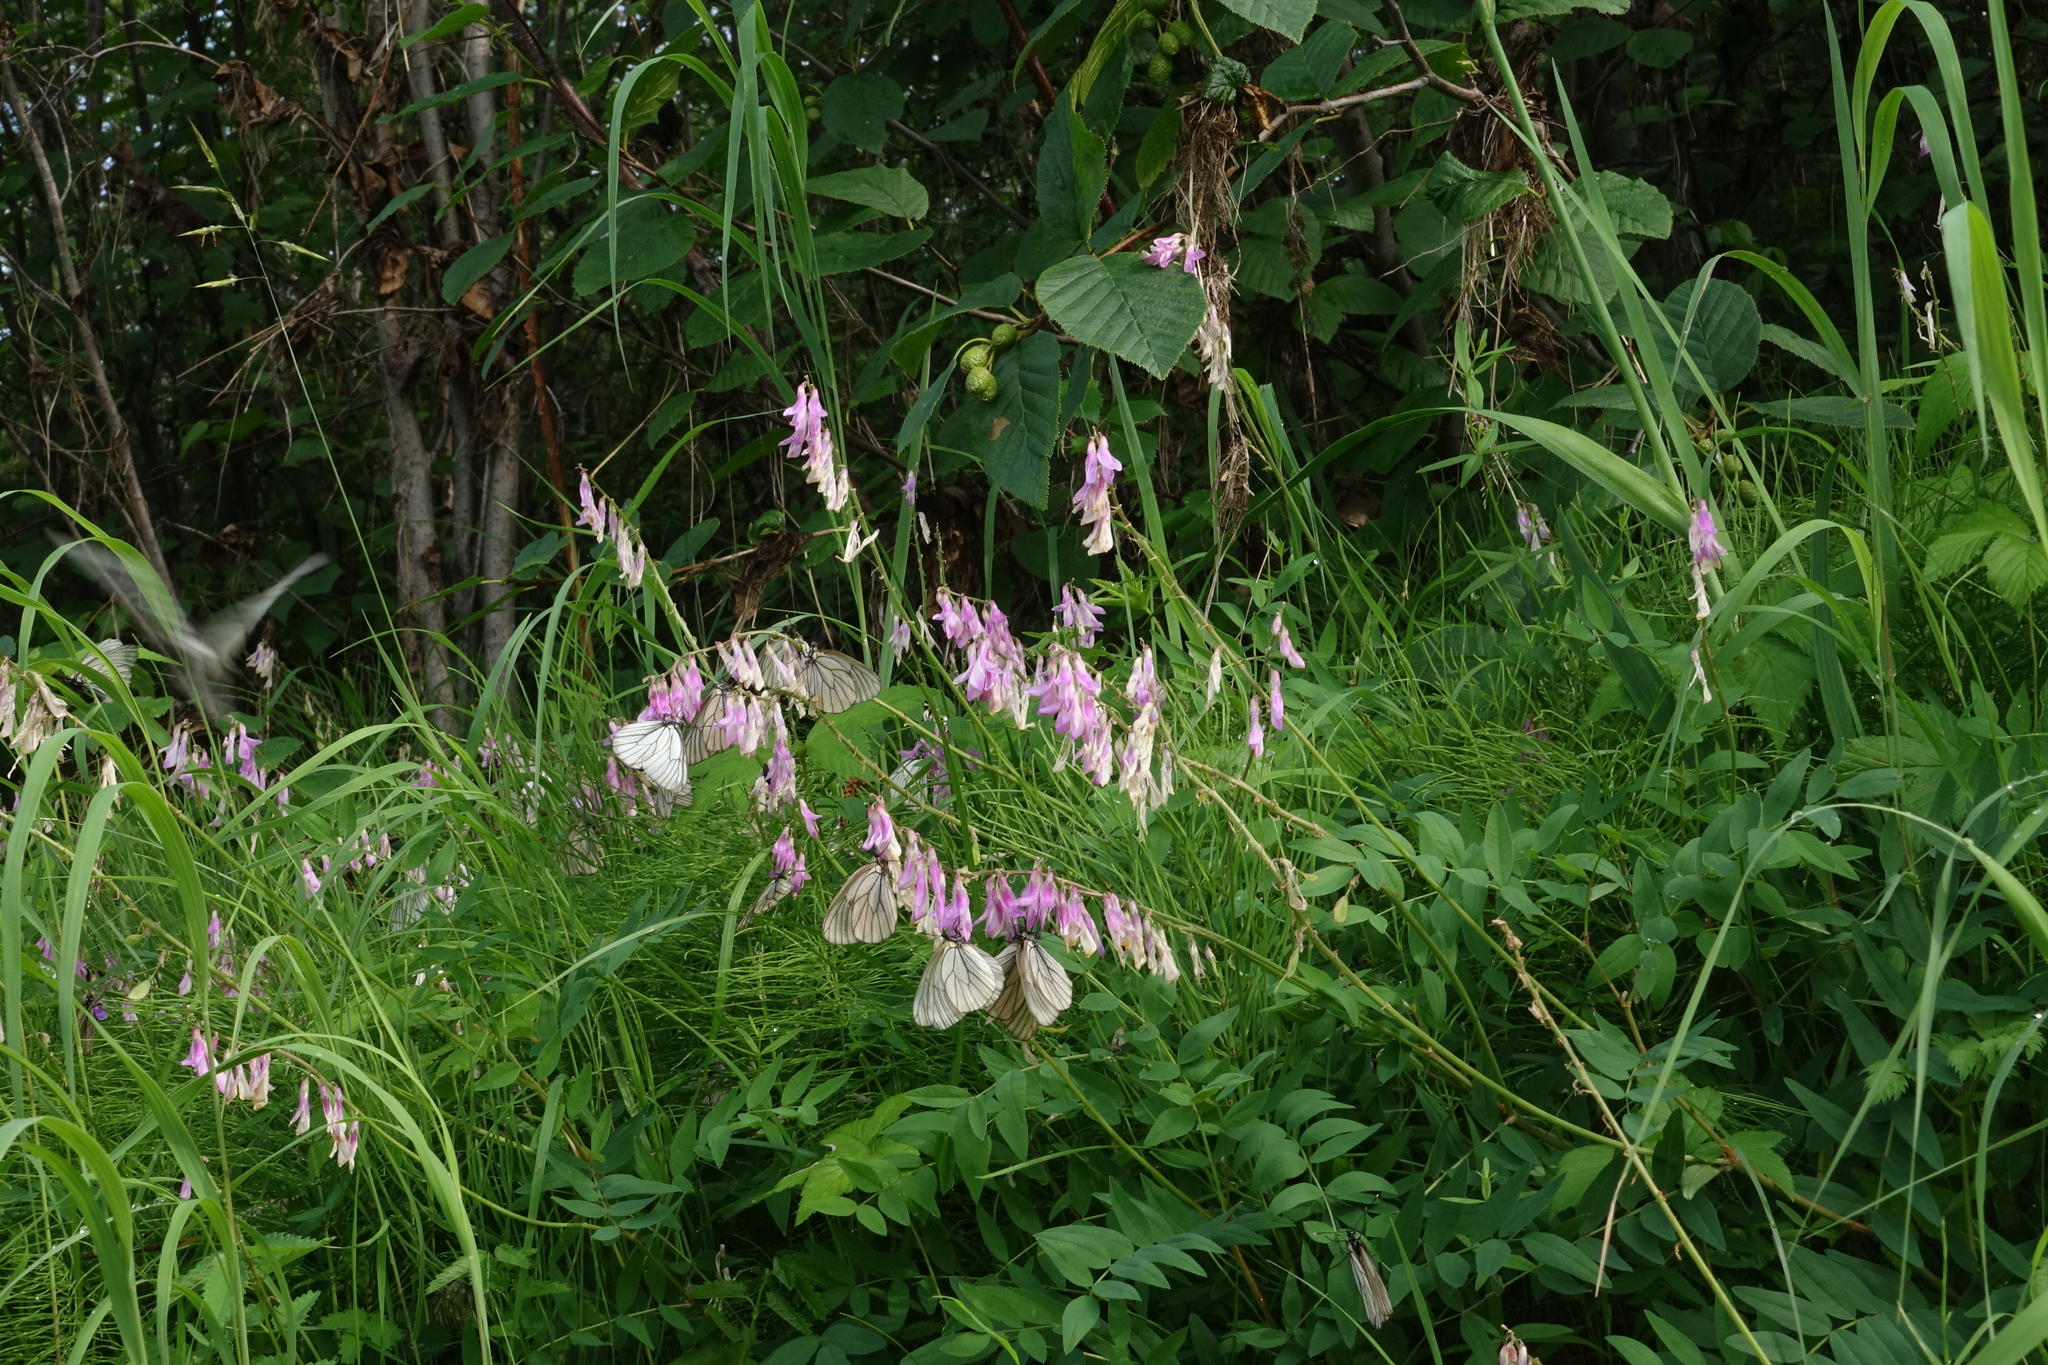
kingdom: Animalia
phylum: Arthropoda
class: Insecta
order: Lepidoptera
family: Pieridae
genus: Aporia
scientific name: Aporia crataegi
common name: Black-veined white
